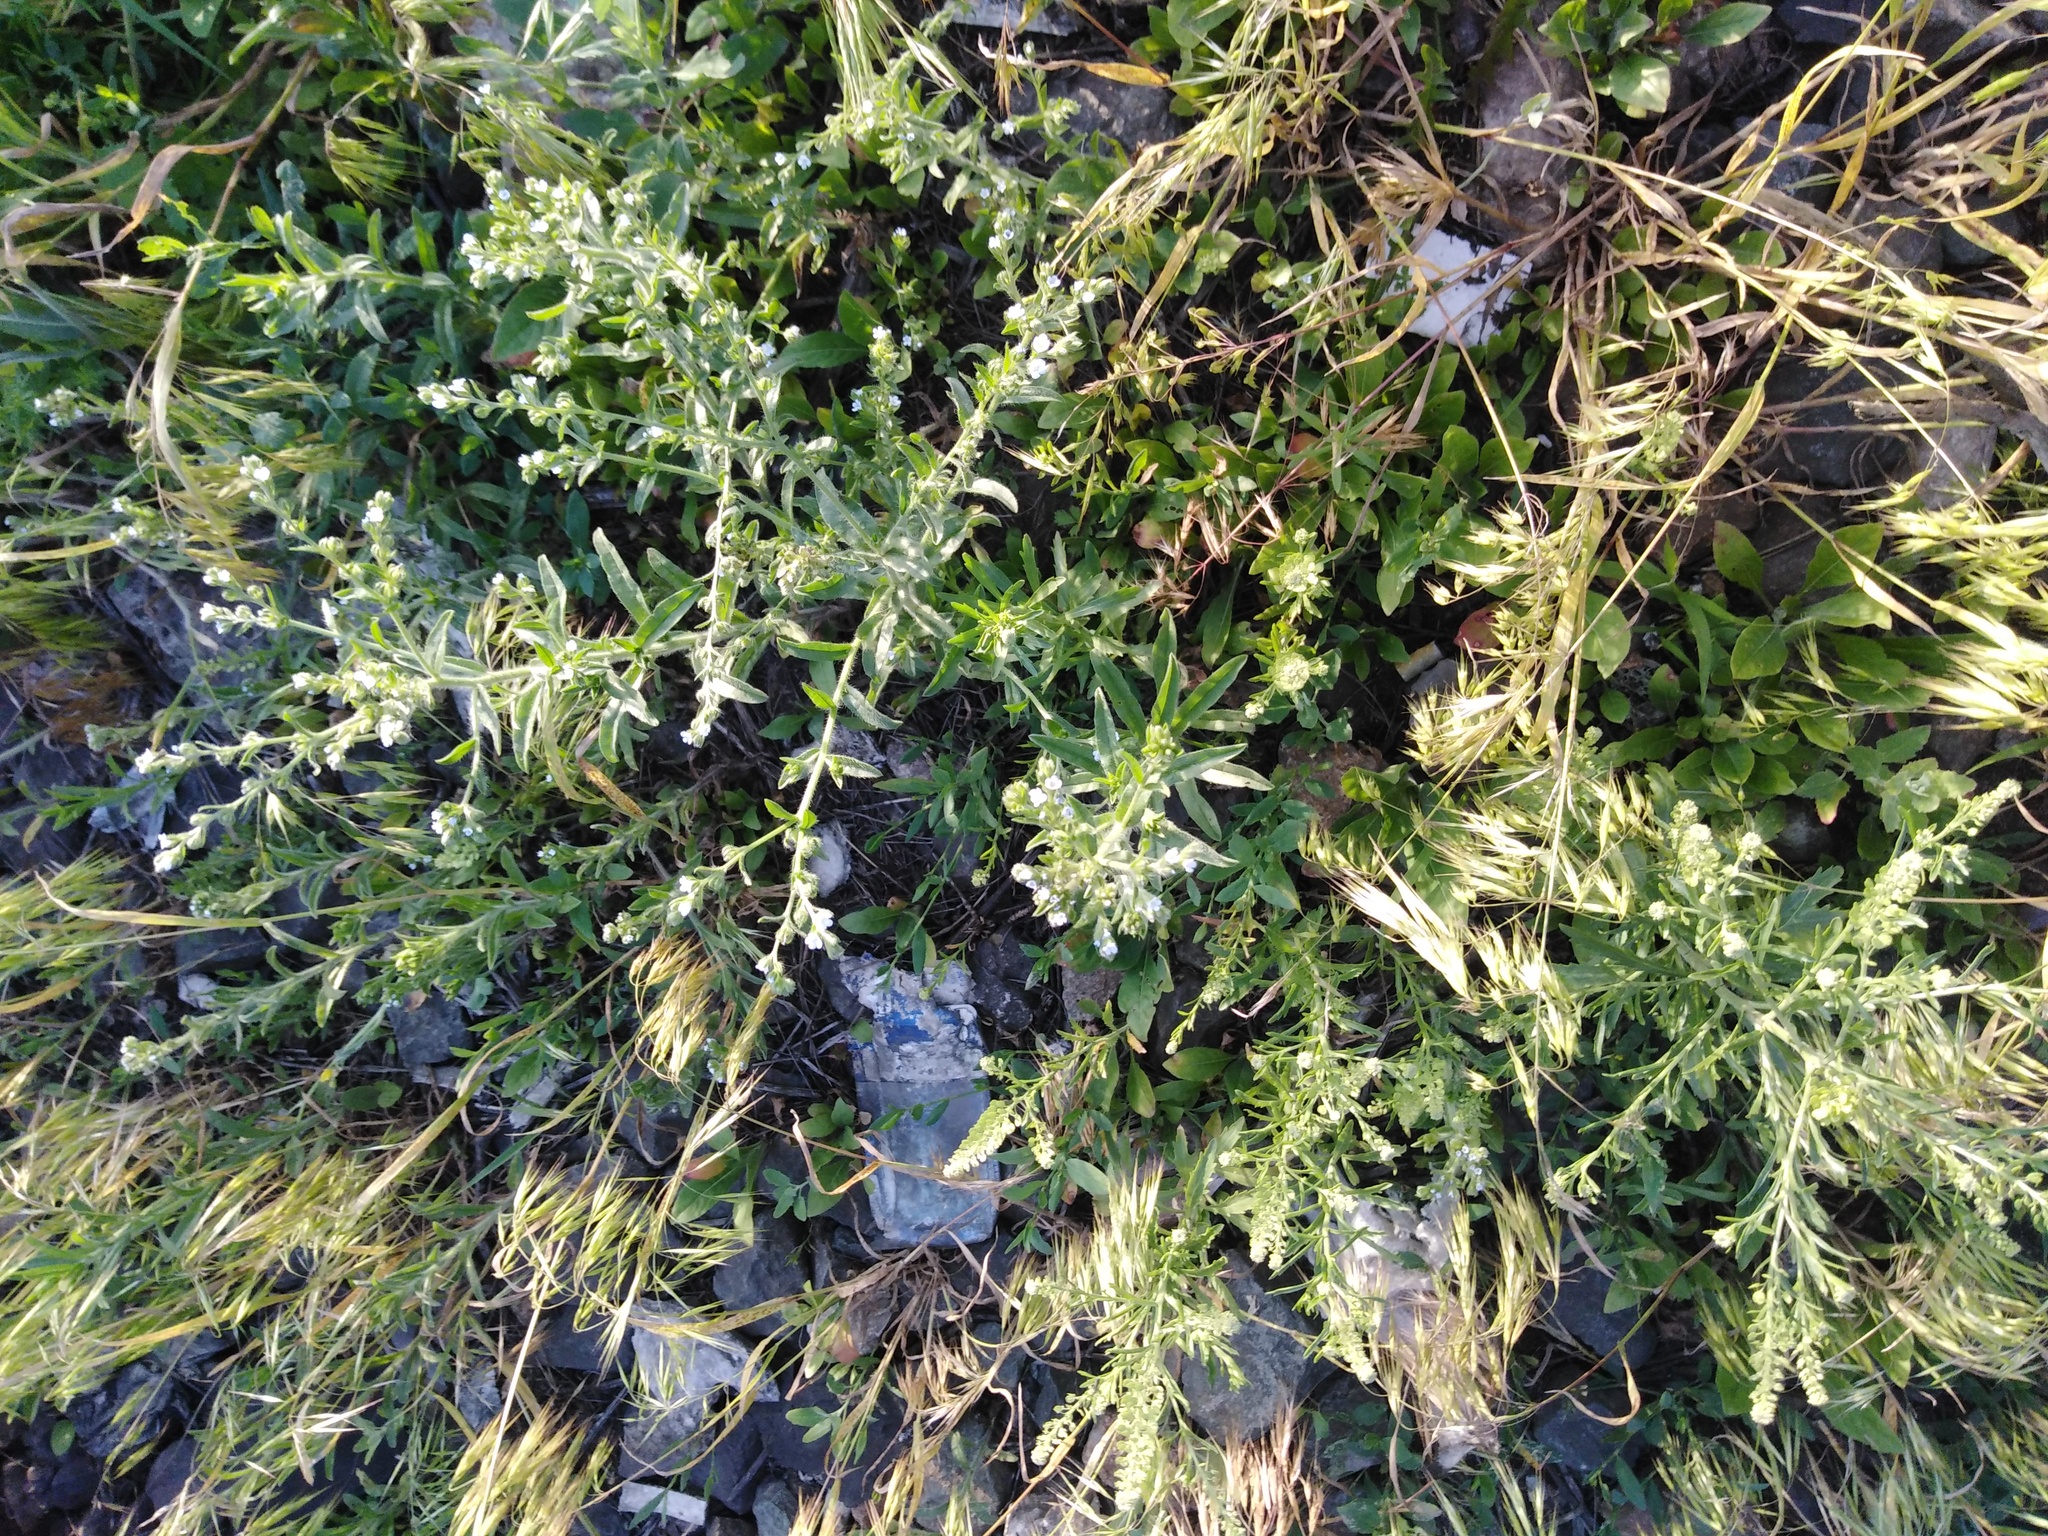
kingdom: Plantae
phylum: Tracheophyta
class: Magnoliopsida
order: Boraginales
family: Boraginaceae
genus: Lappula
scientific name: Lappula squarrosa
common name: European stickseed
